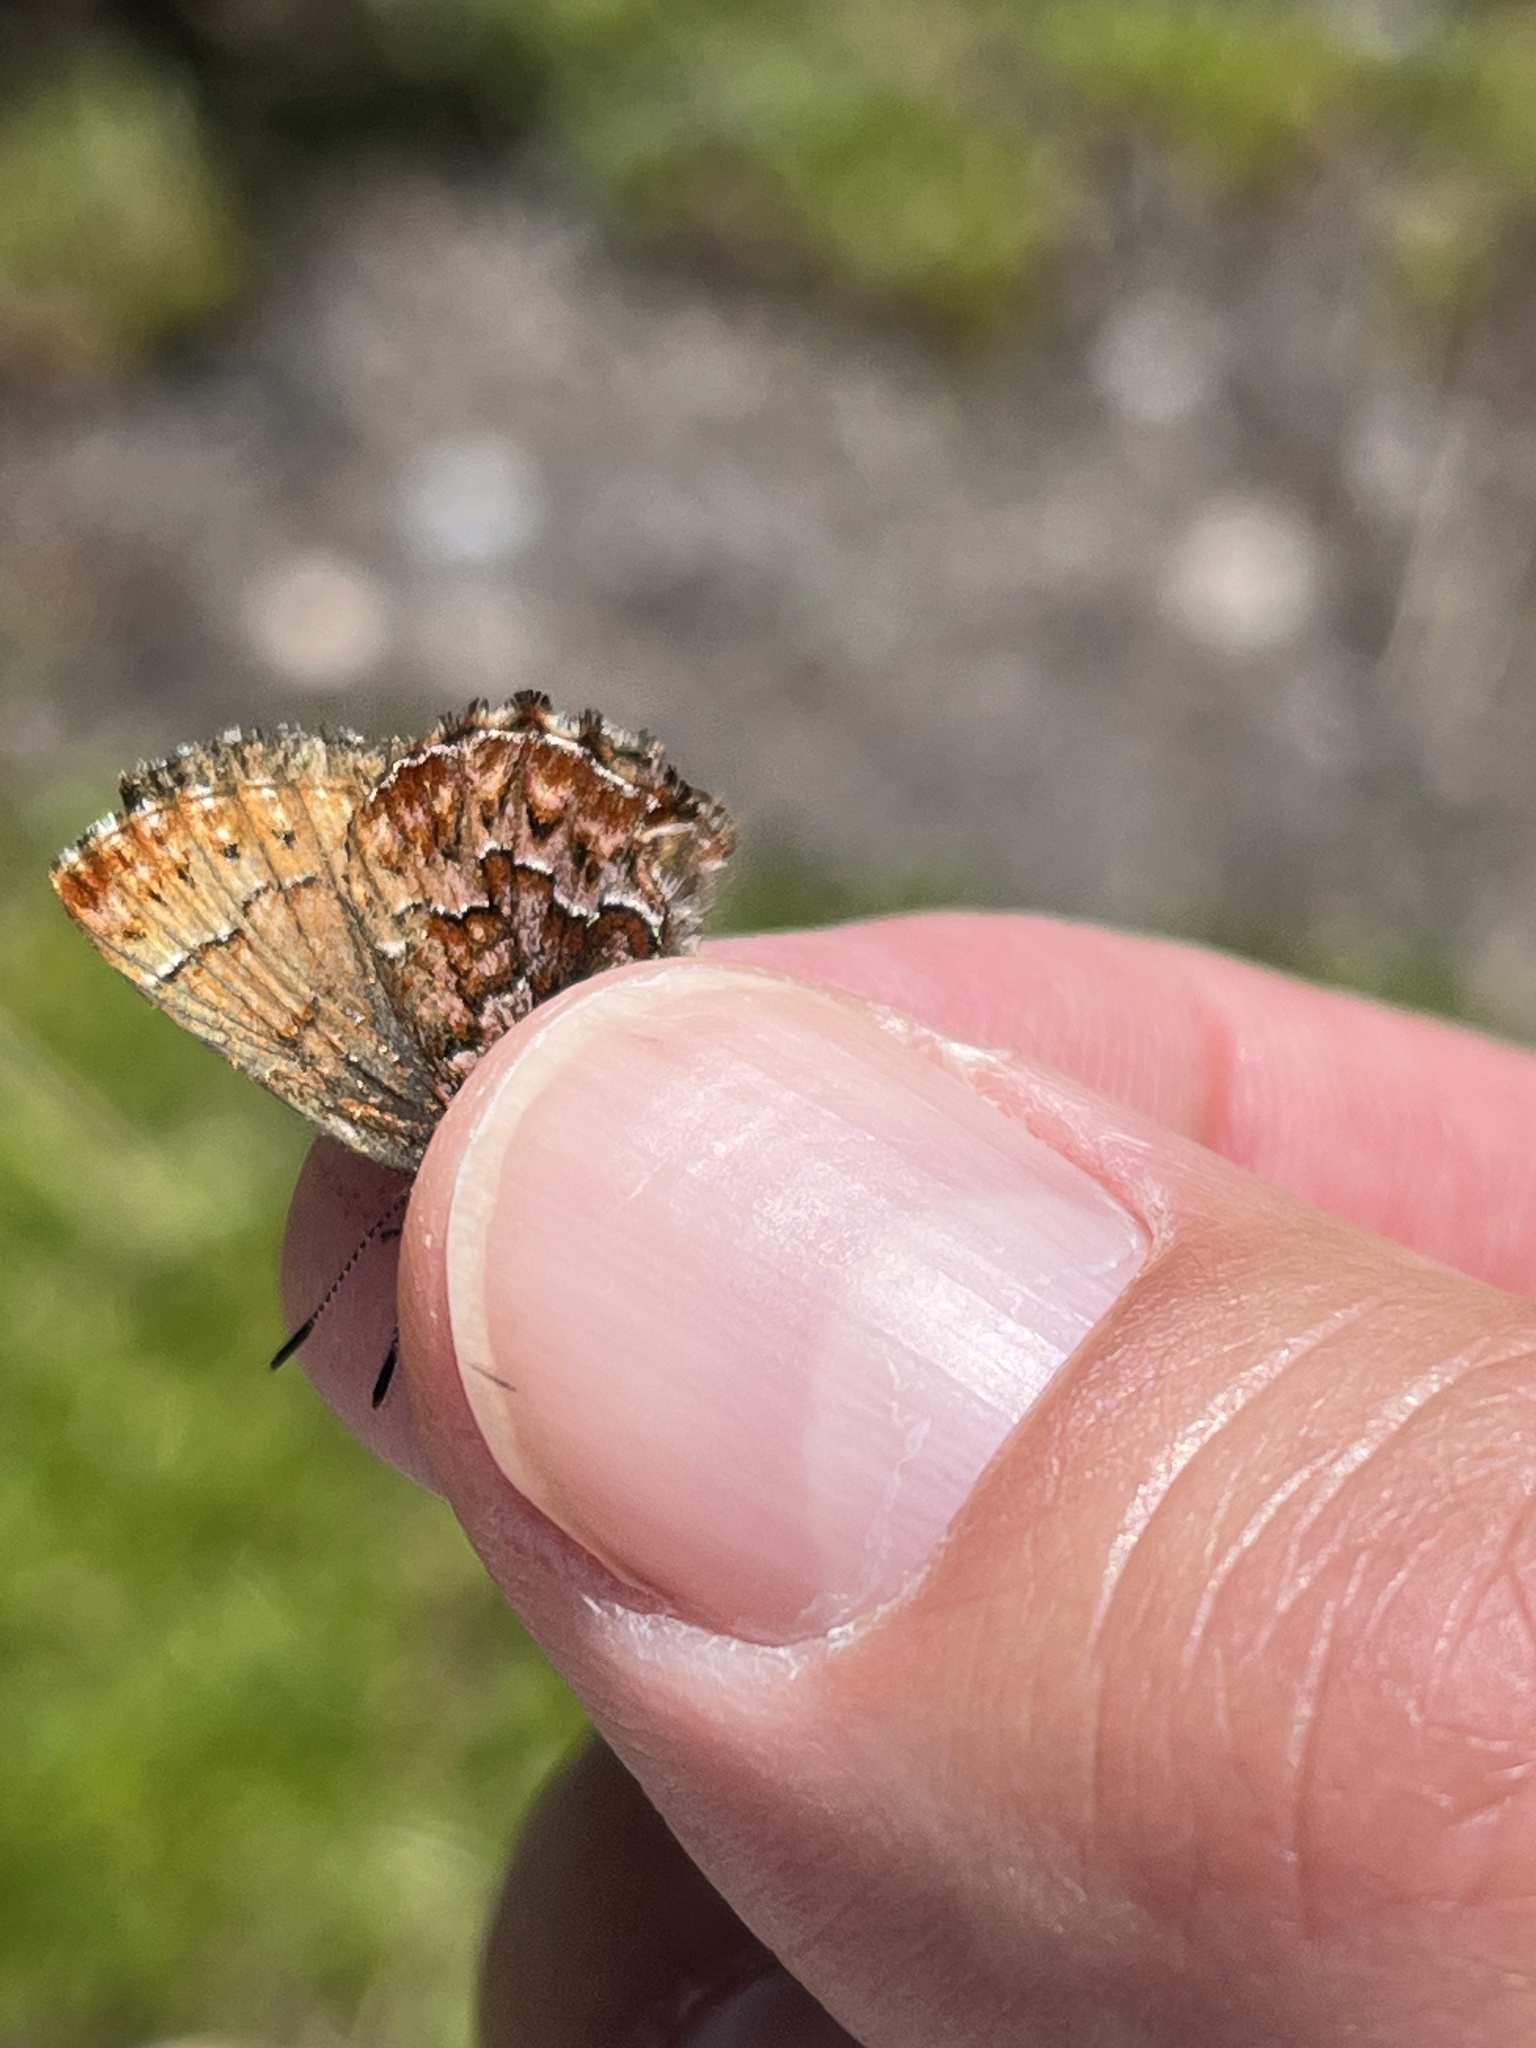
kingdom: Animalia
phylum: Arthropoda
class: Insecta
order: Lepidoptera
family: Lycaenidae
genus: Incisalia
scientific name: Incisalia eryphon
